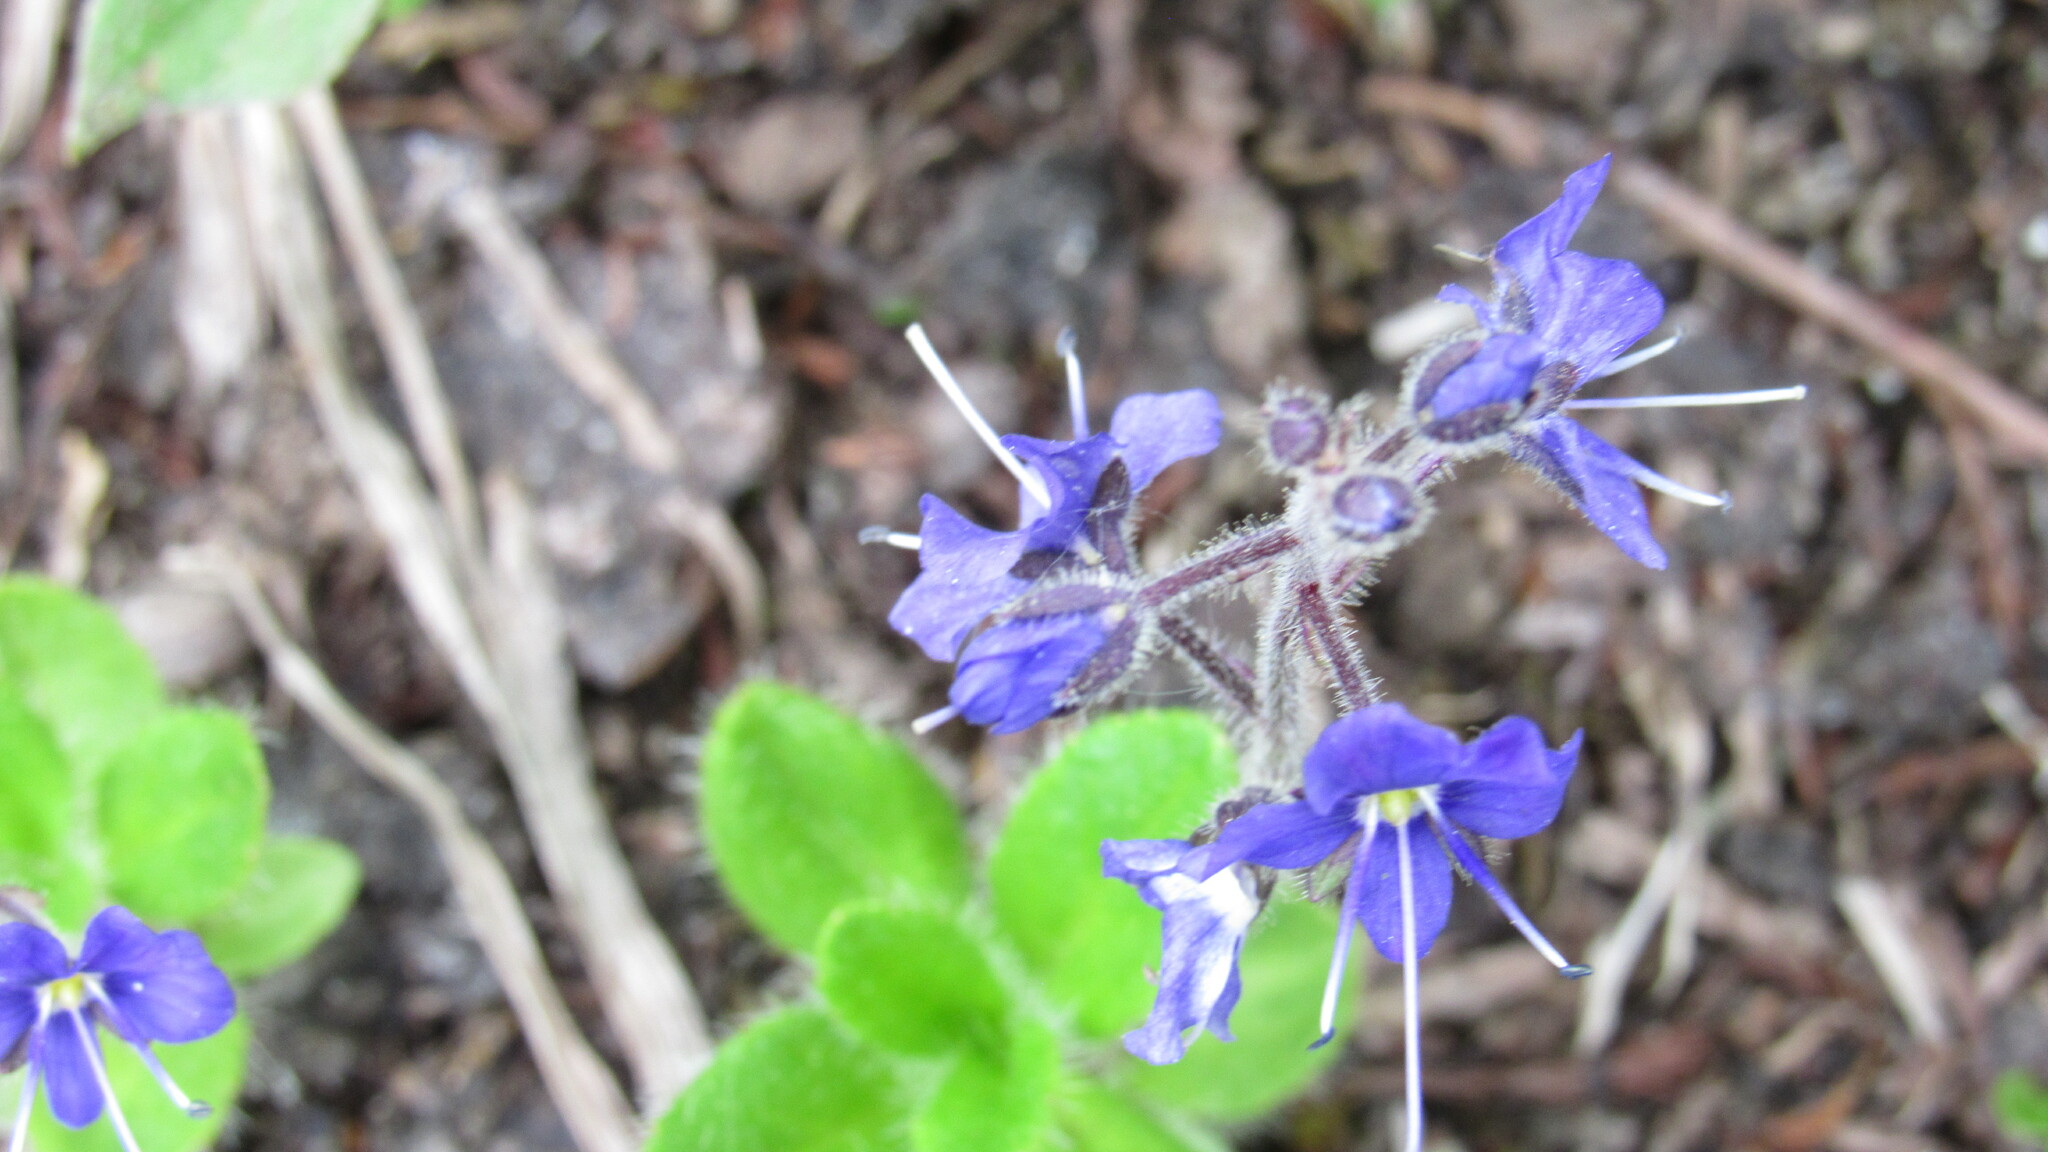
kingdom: Plantae
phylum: Tracheophyta
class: Magnoliopsida
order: Lamiales
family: Plantaginaceae
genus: Veronica
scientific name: Veronica grandiflora
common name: Large-flower speedwell
